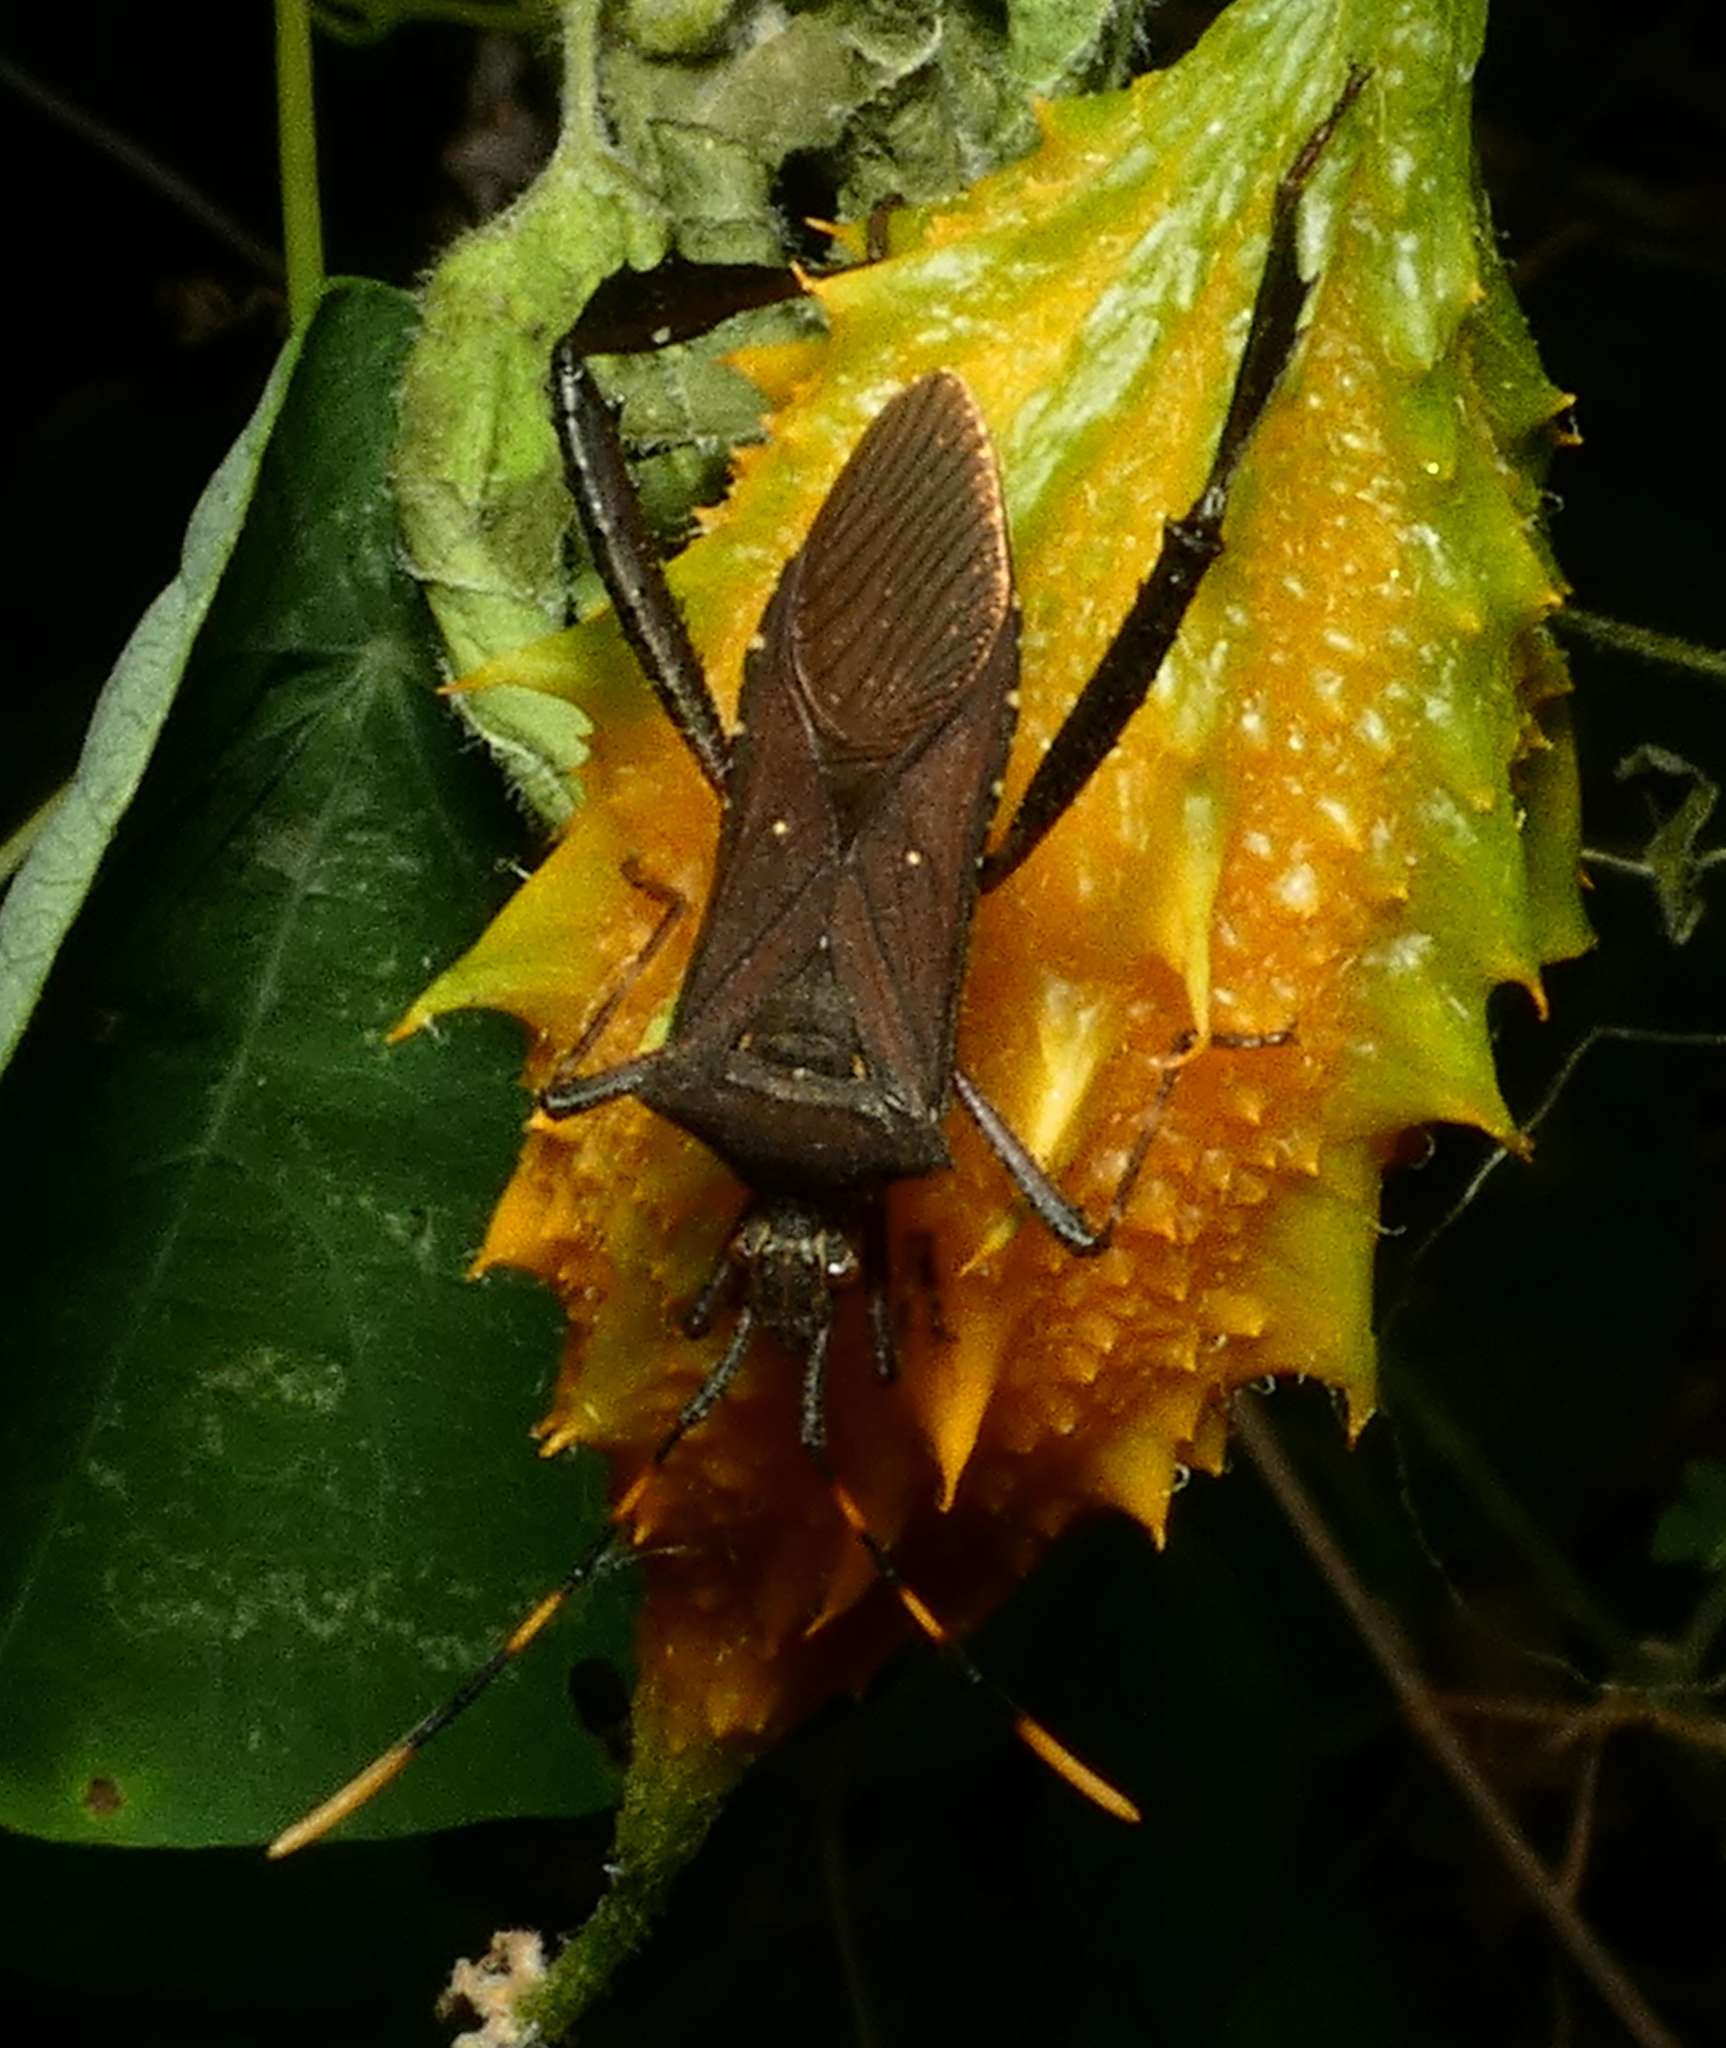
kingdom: Animalia
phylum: Arthropoda
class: Insecta
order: Hemiptera
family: Coreidae
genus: Leptoglossus
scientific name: Leptoglossus gonagra
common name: Citron bug
